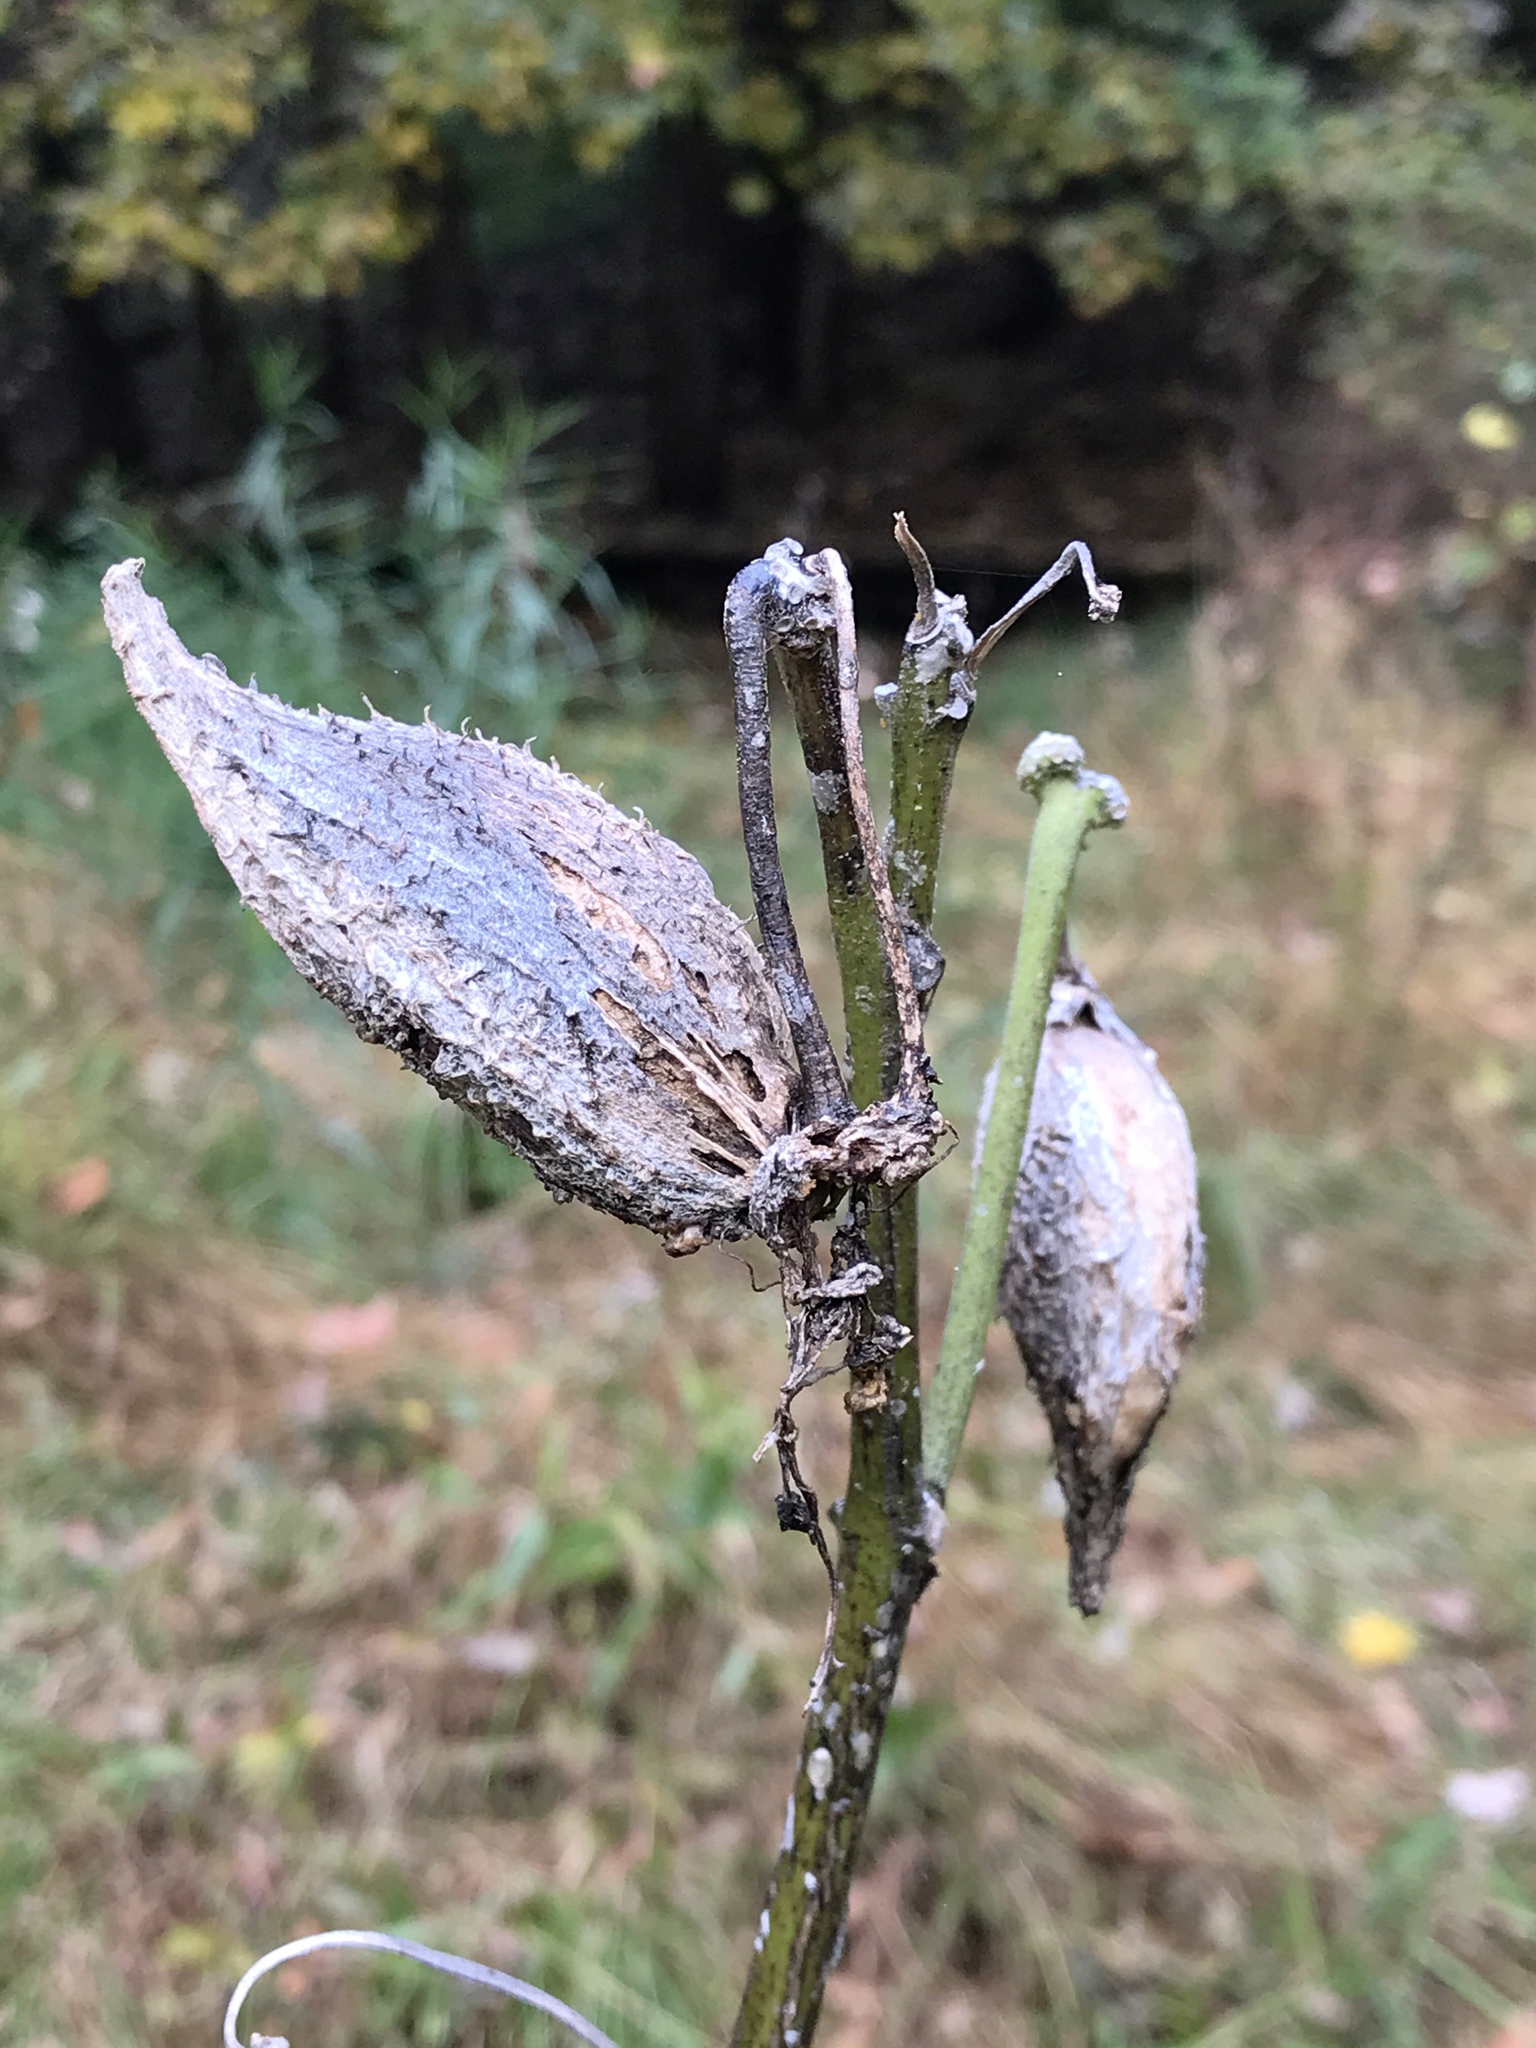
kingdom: Plantae
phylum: Tracheophyta
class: Magnoliopsida
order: Gentianales
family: Apocynaceae
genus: Asclepias
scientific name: Asclepias syriaca
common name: Common milkweed
